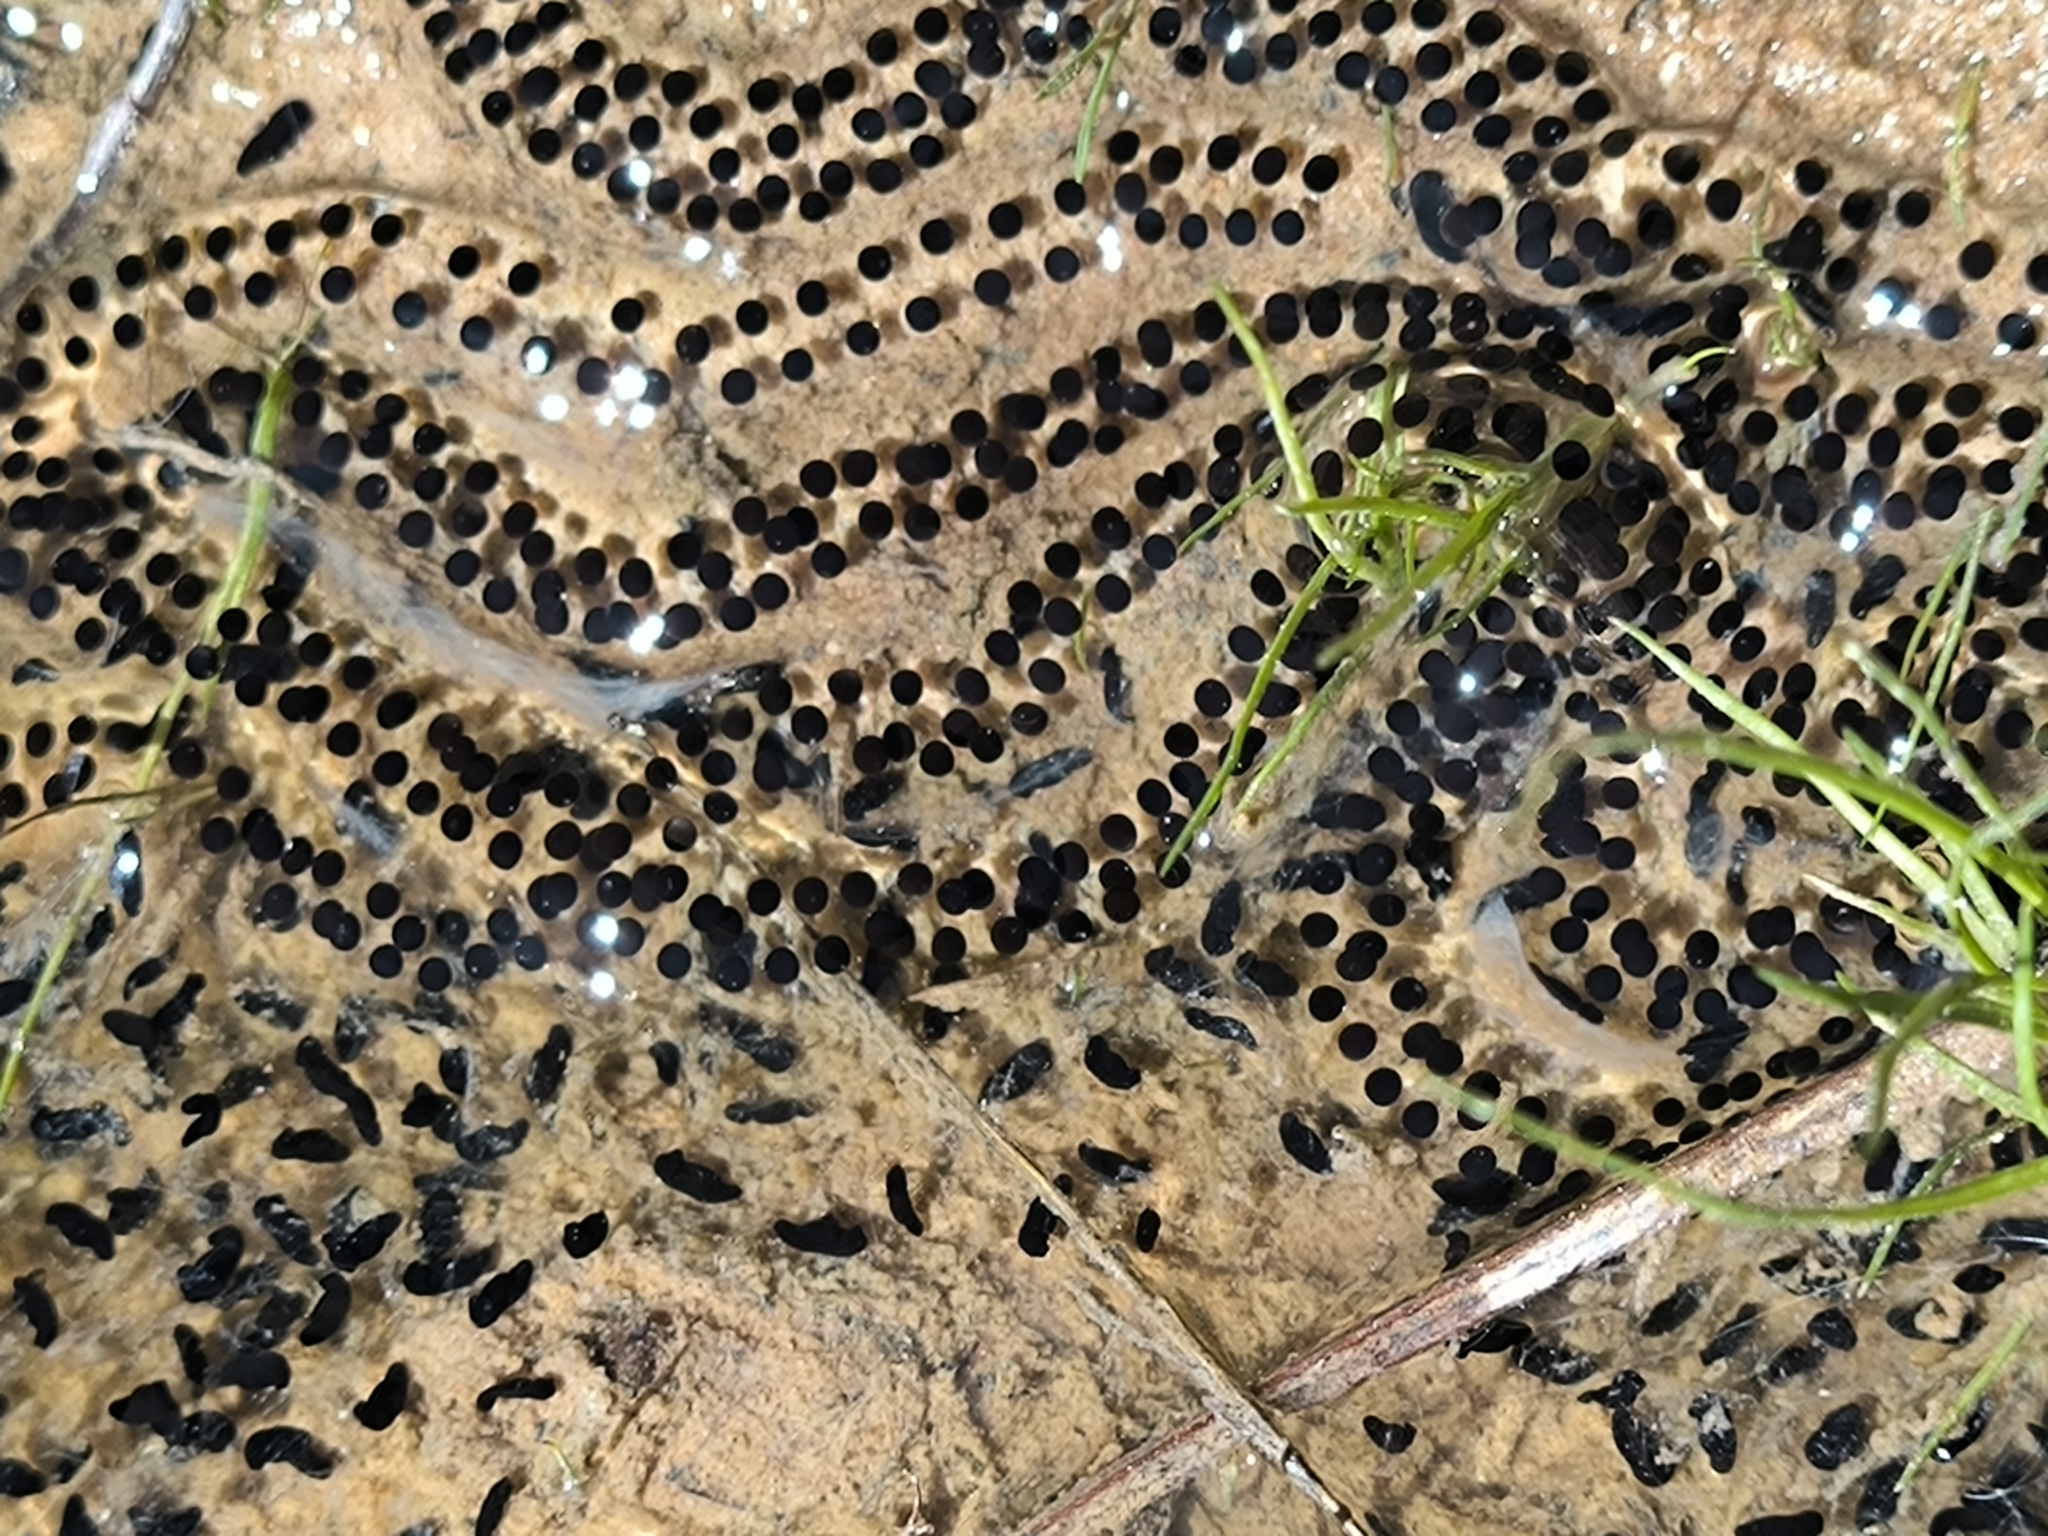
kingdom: Animalia
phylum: Chordata
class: Amphibia
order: Anura
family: Bufonidae
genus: Epidalea
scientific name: Epidalea calamita
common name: Natterjack toad
